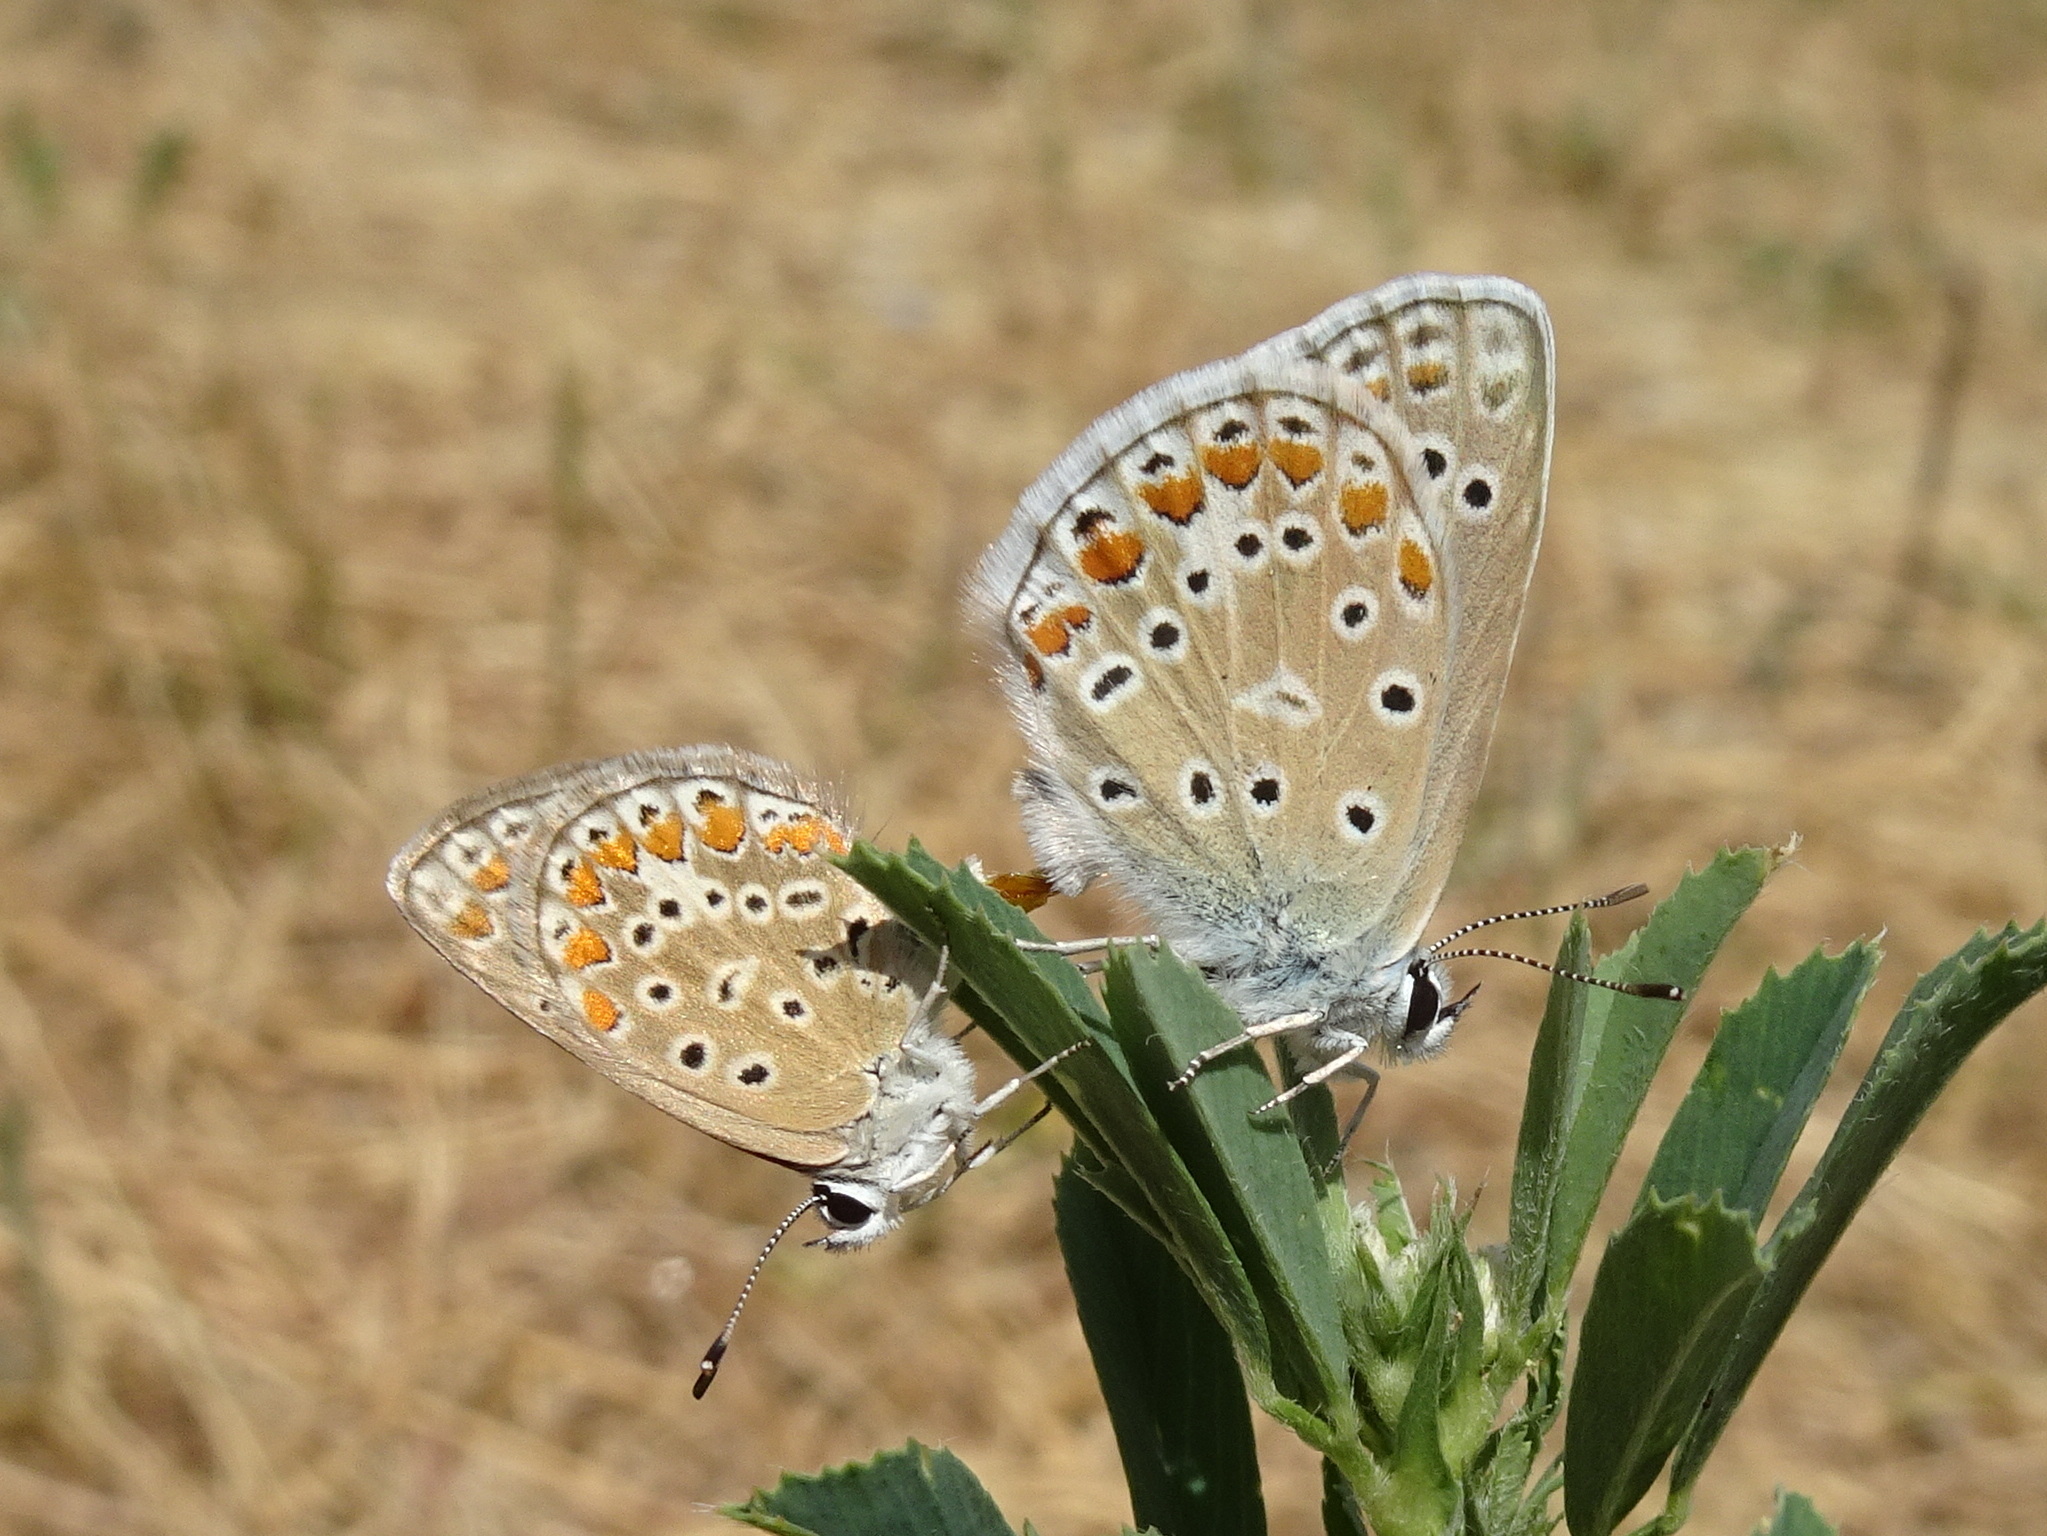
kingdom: Animalia
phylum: Arthropoda
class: Insecta
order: Lepidoptera
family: Lycaenidae
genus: Polyommatus
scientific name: Polyommatus icarus
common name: Common blue
